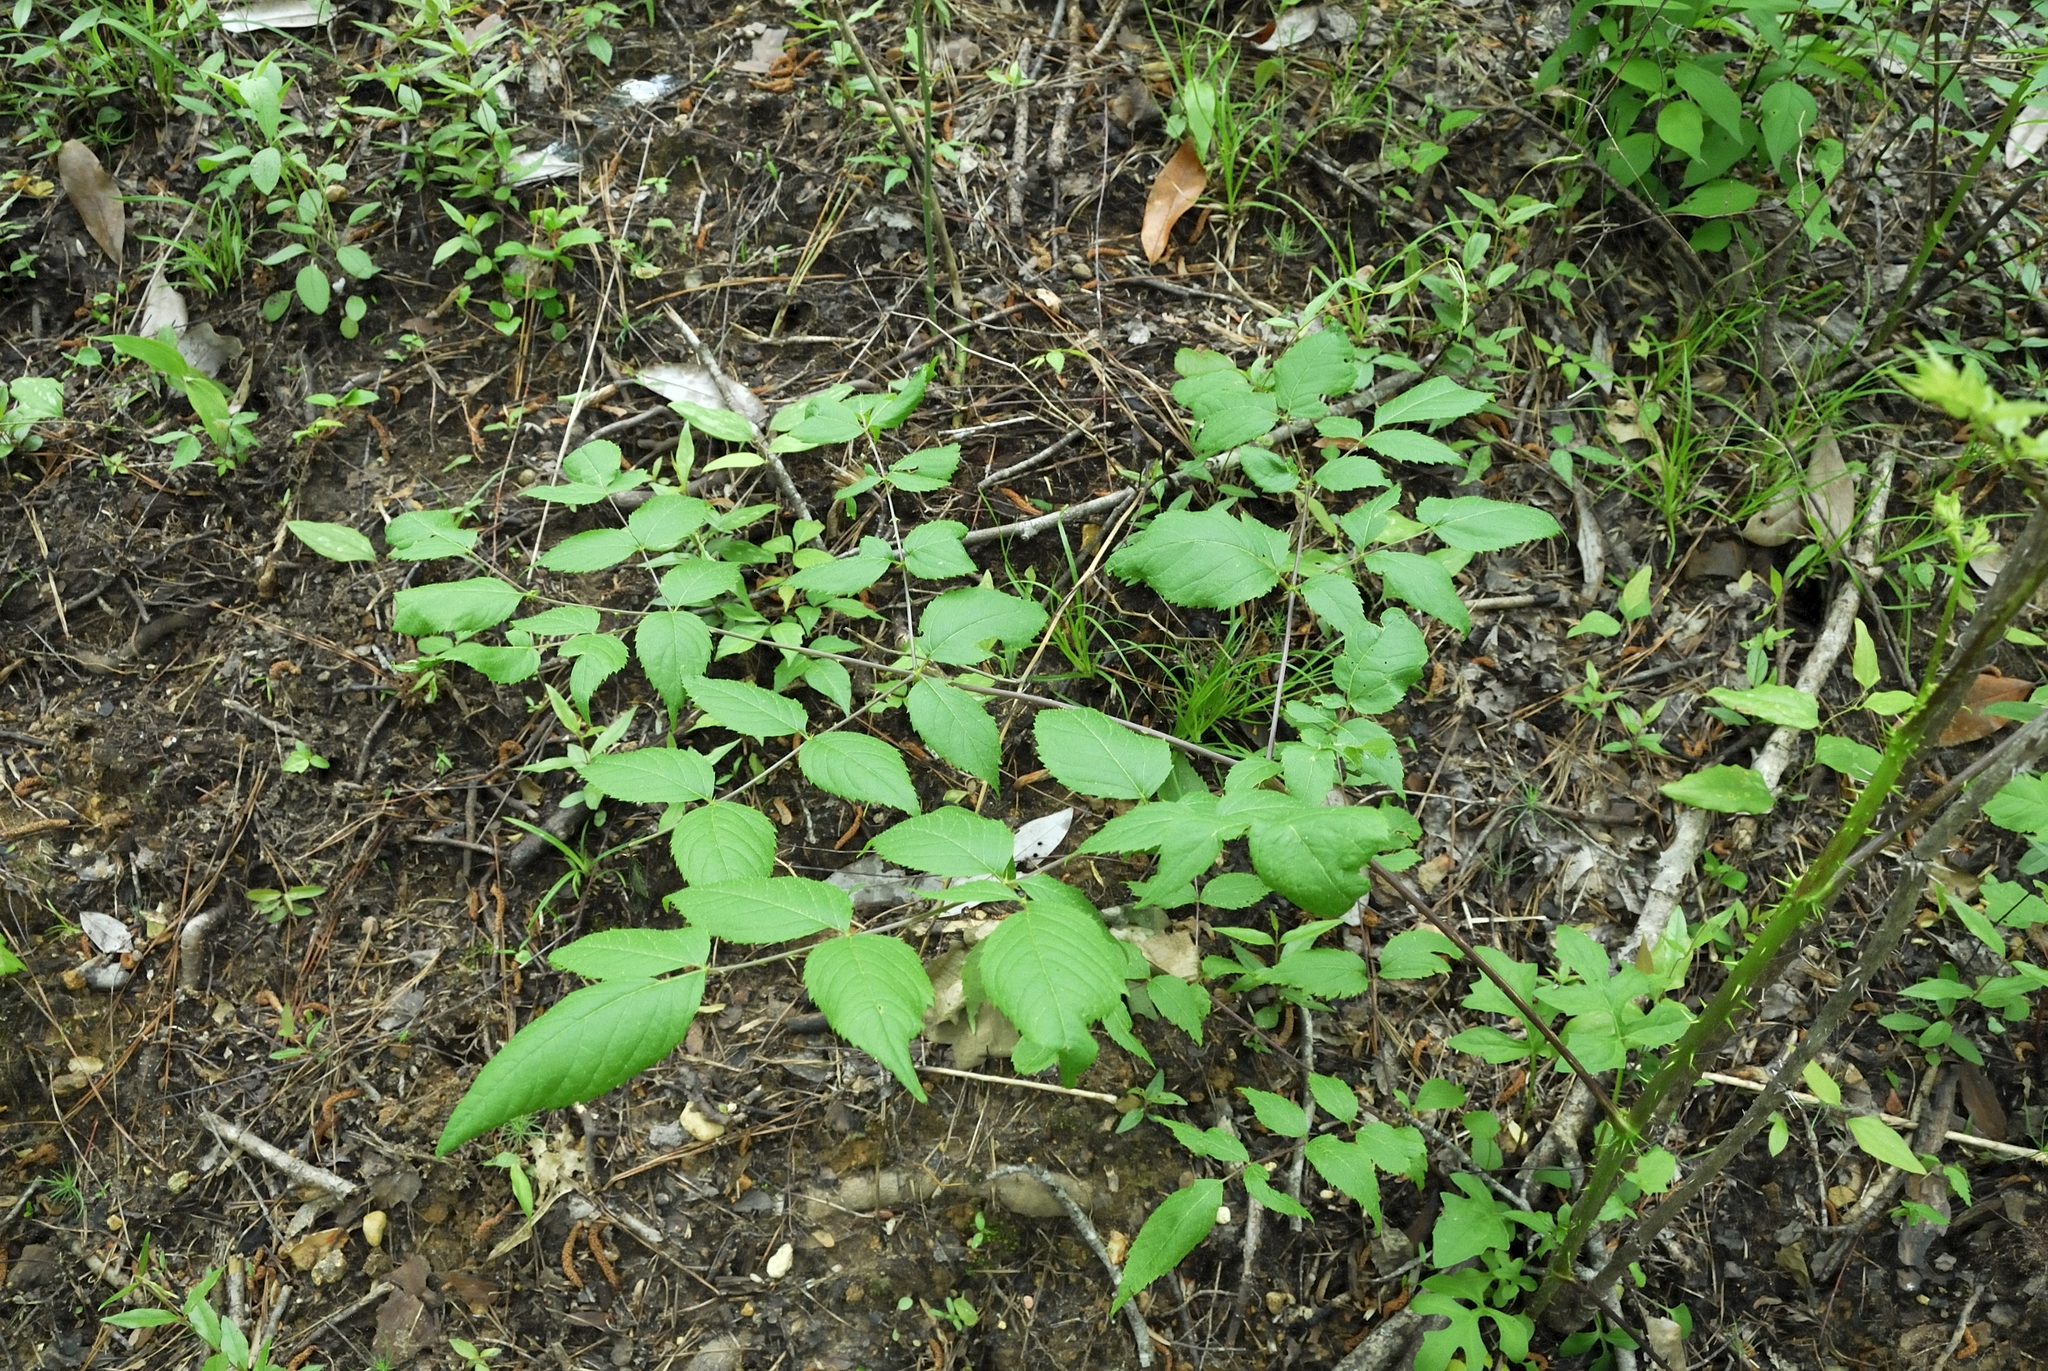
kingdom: Plantae
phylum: Tracheophyta
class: Magnoliopsida
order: Apiales
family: Araliaceae
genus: Aralia
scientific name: Aralia spinosa
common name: Hercules'-club
